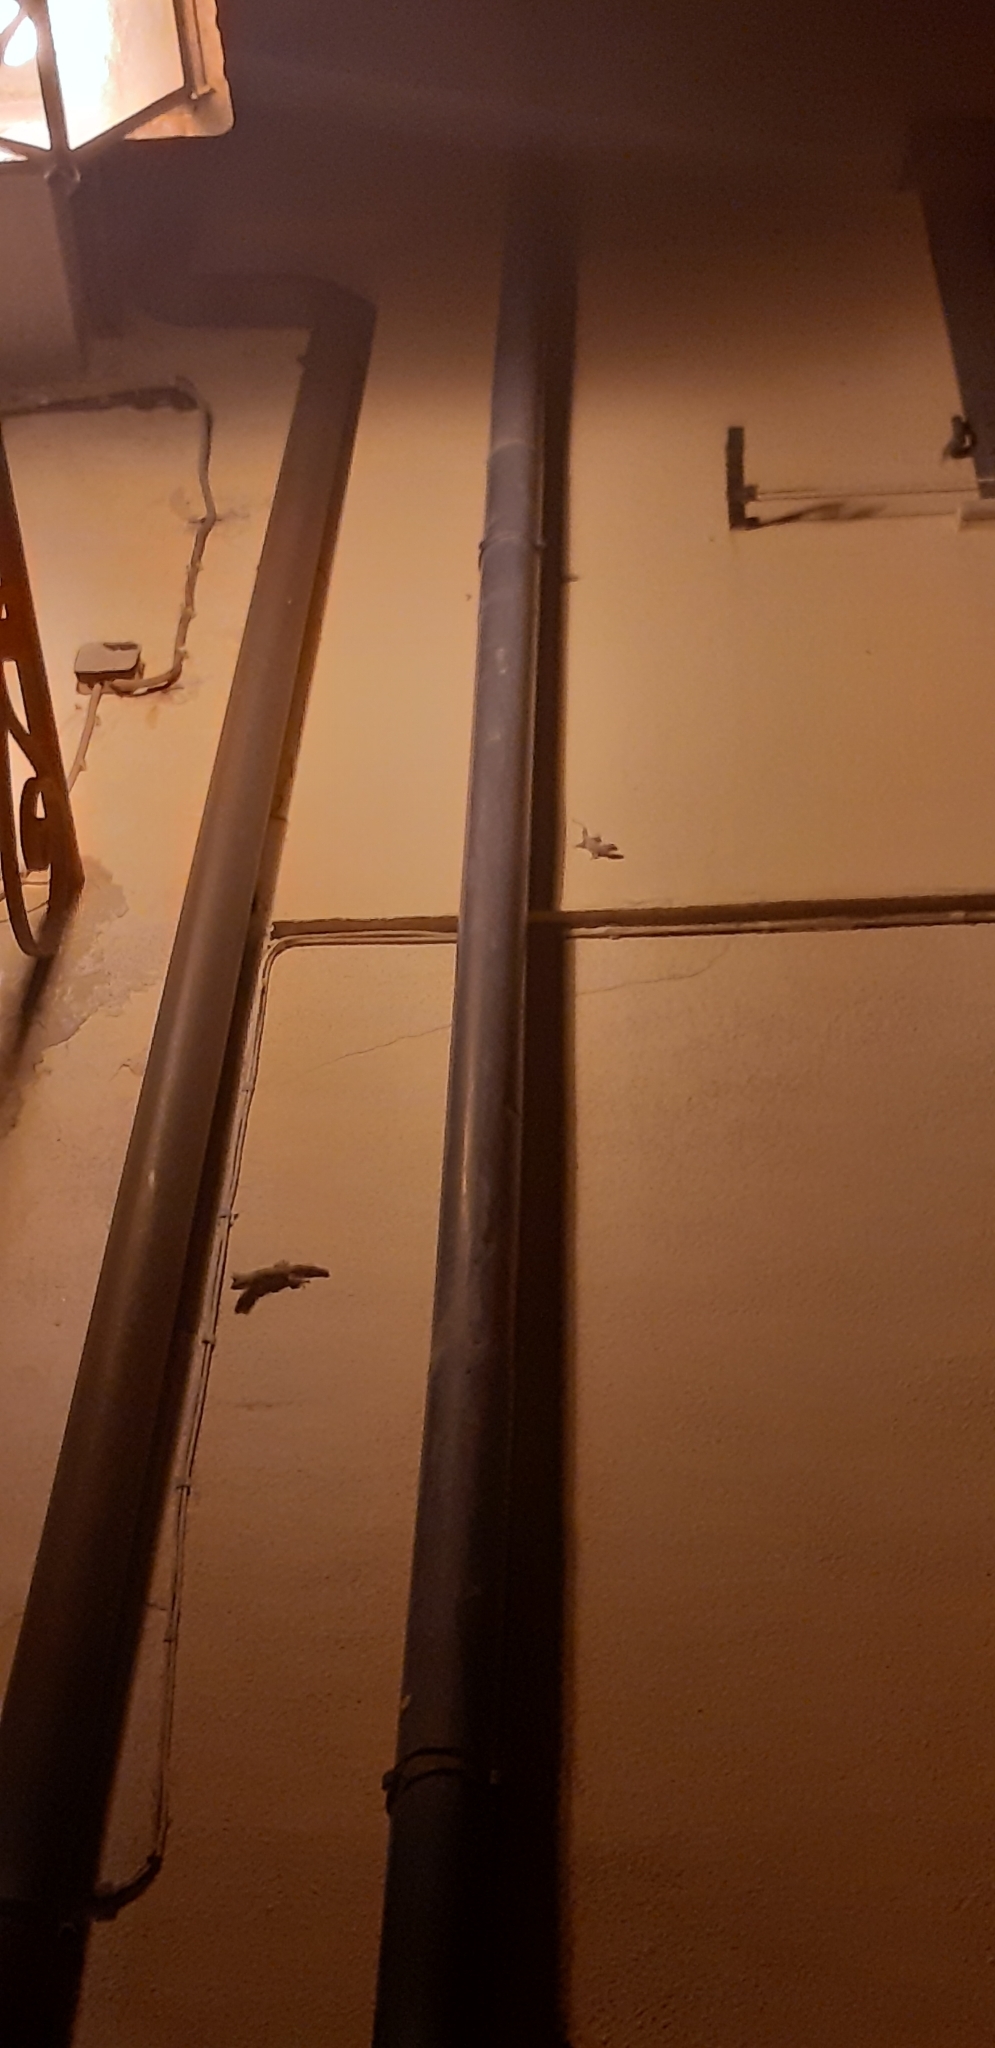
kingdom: Animalia
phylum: Chordata
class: Squamata
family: Phyllodactylidae
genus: Tarentola
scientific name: Tarentola mauritanica
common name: Moorish gecko
